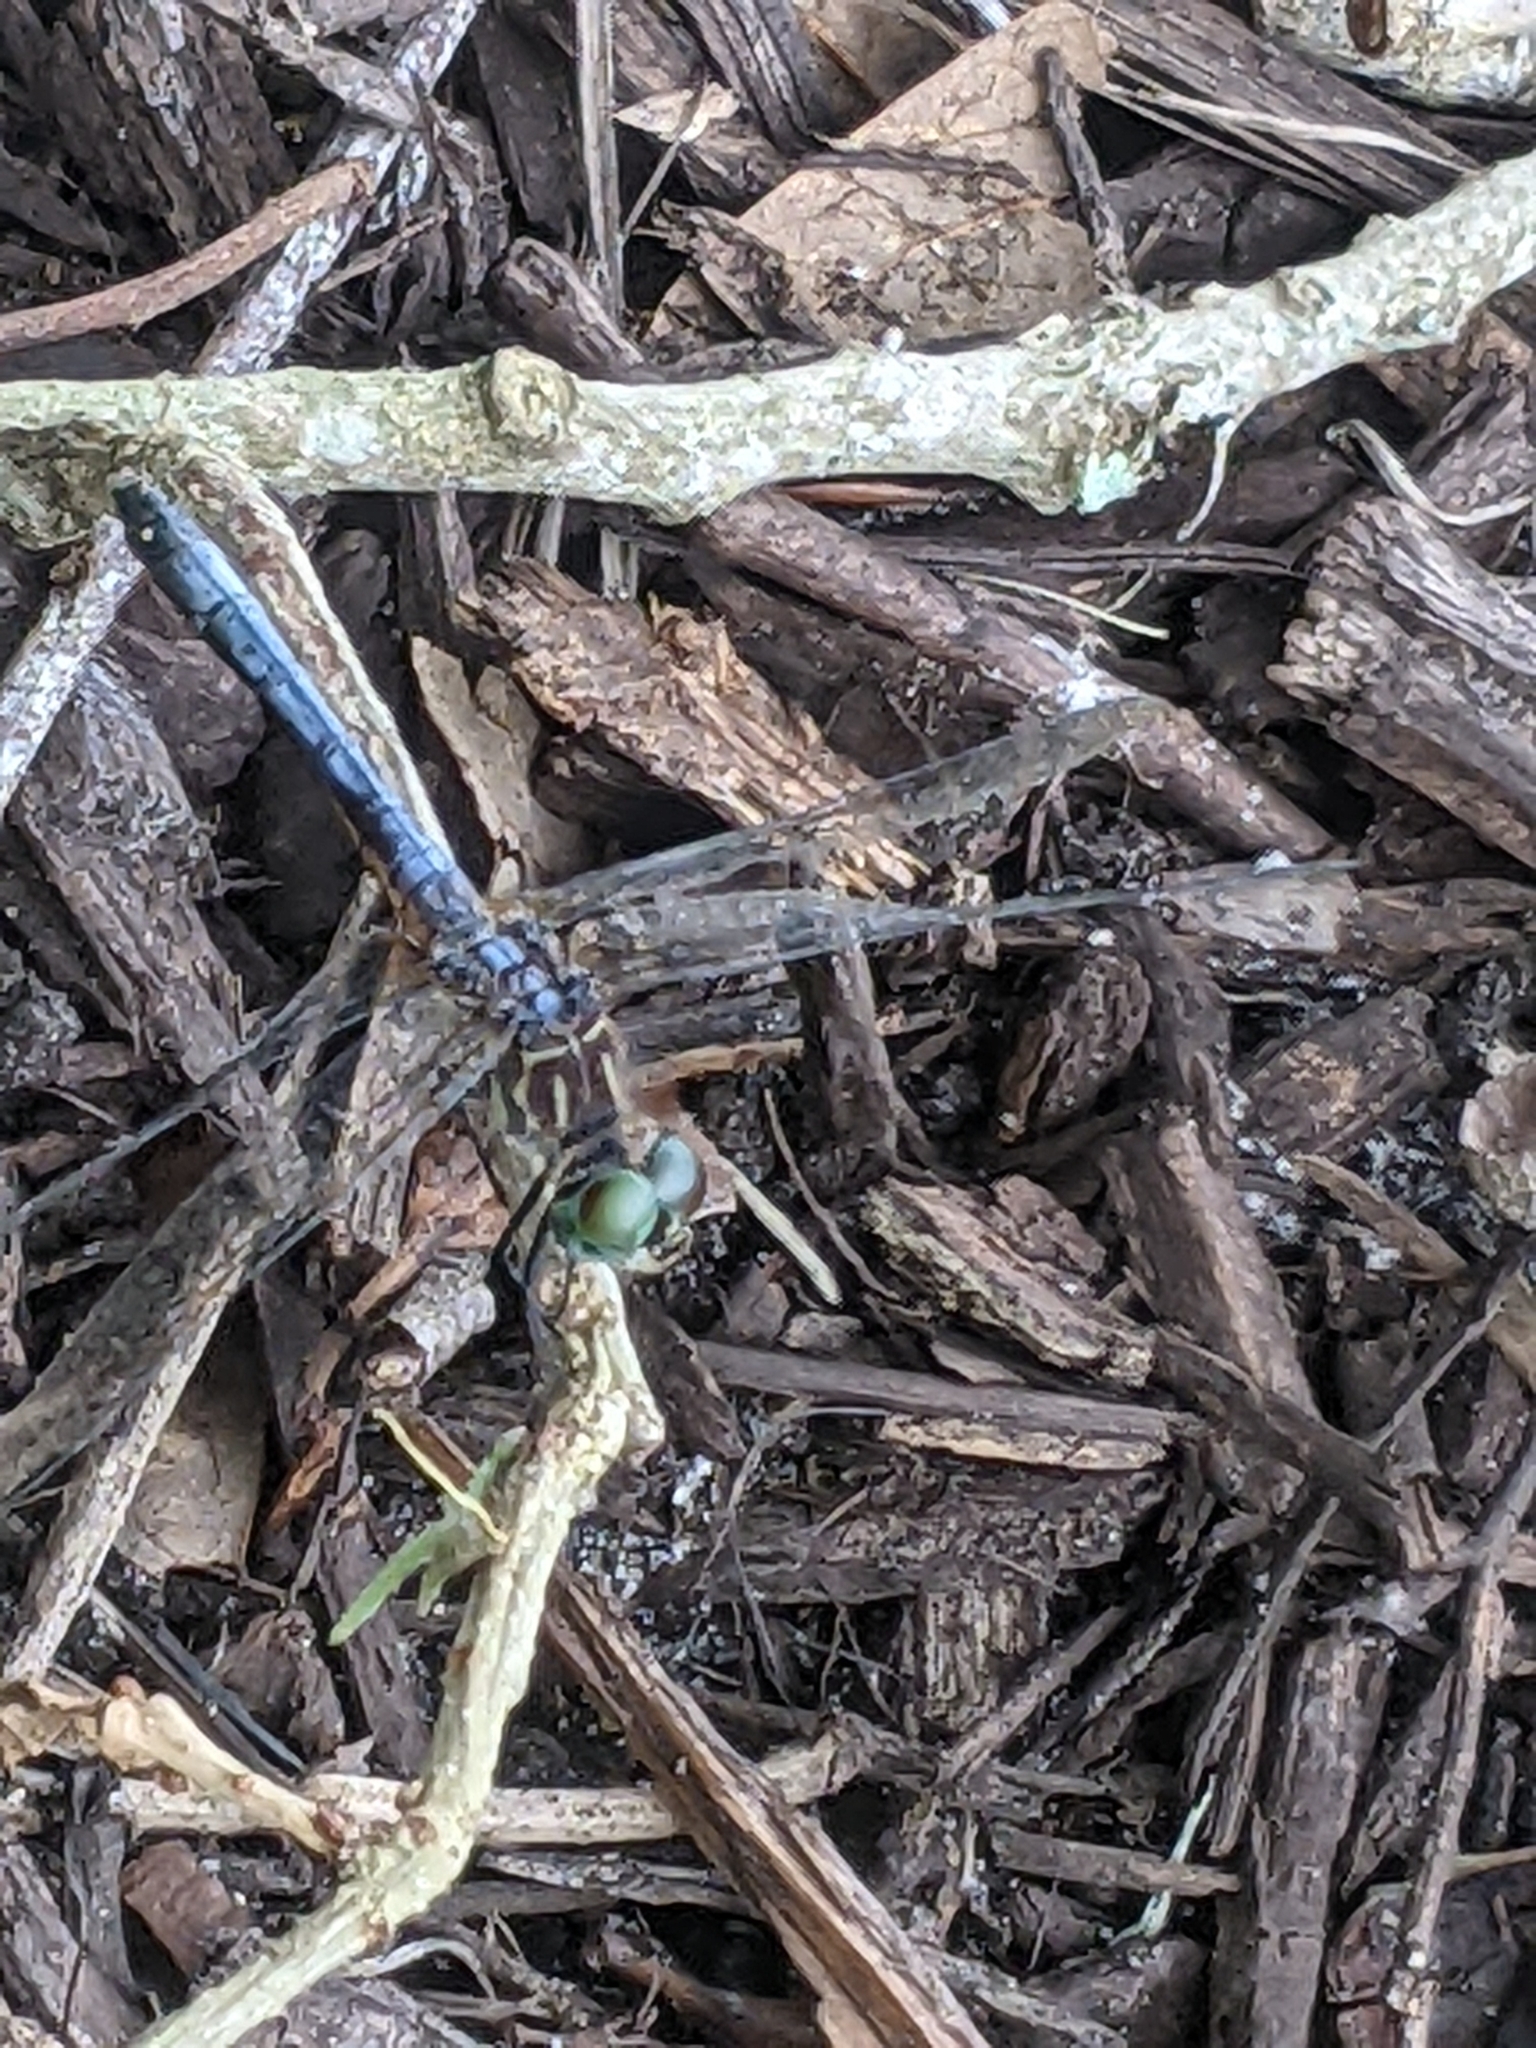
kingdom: Animalia
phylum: Arthropoda
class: Insecta
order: Odonata
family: Libellulidae
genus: Pachydiplax
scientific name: Pachydiplax longipennis
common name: Blue dasher
